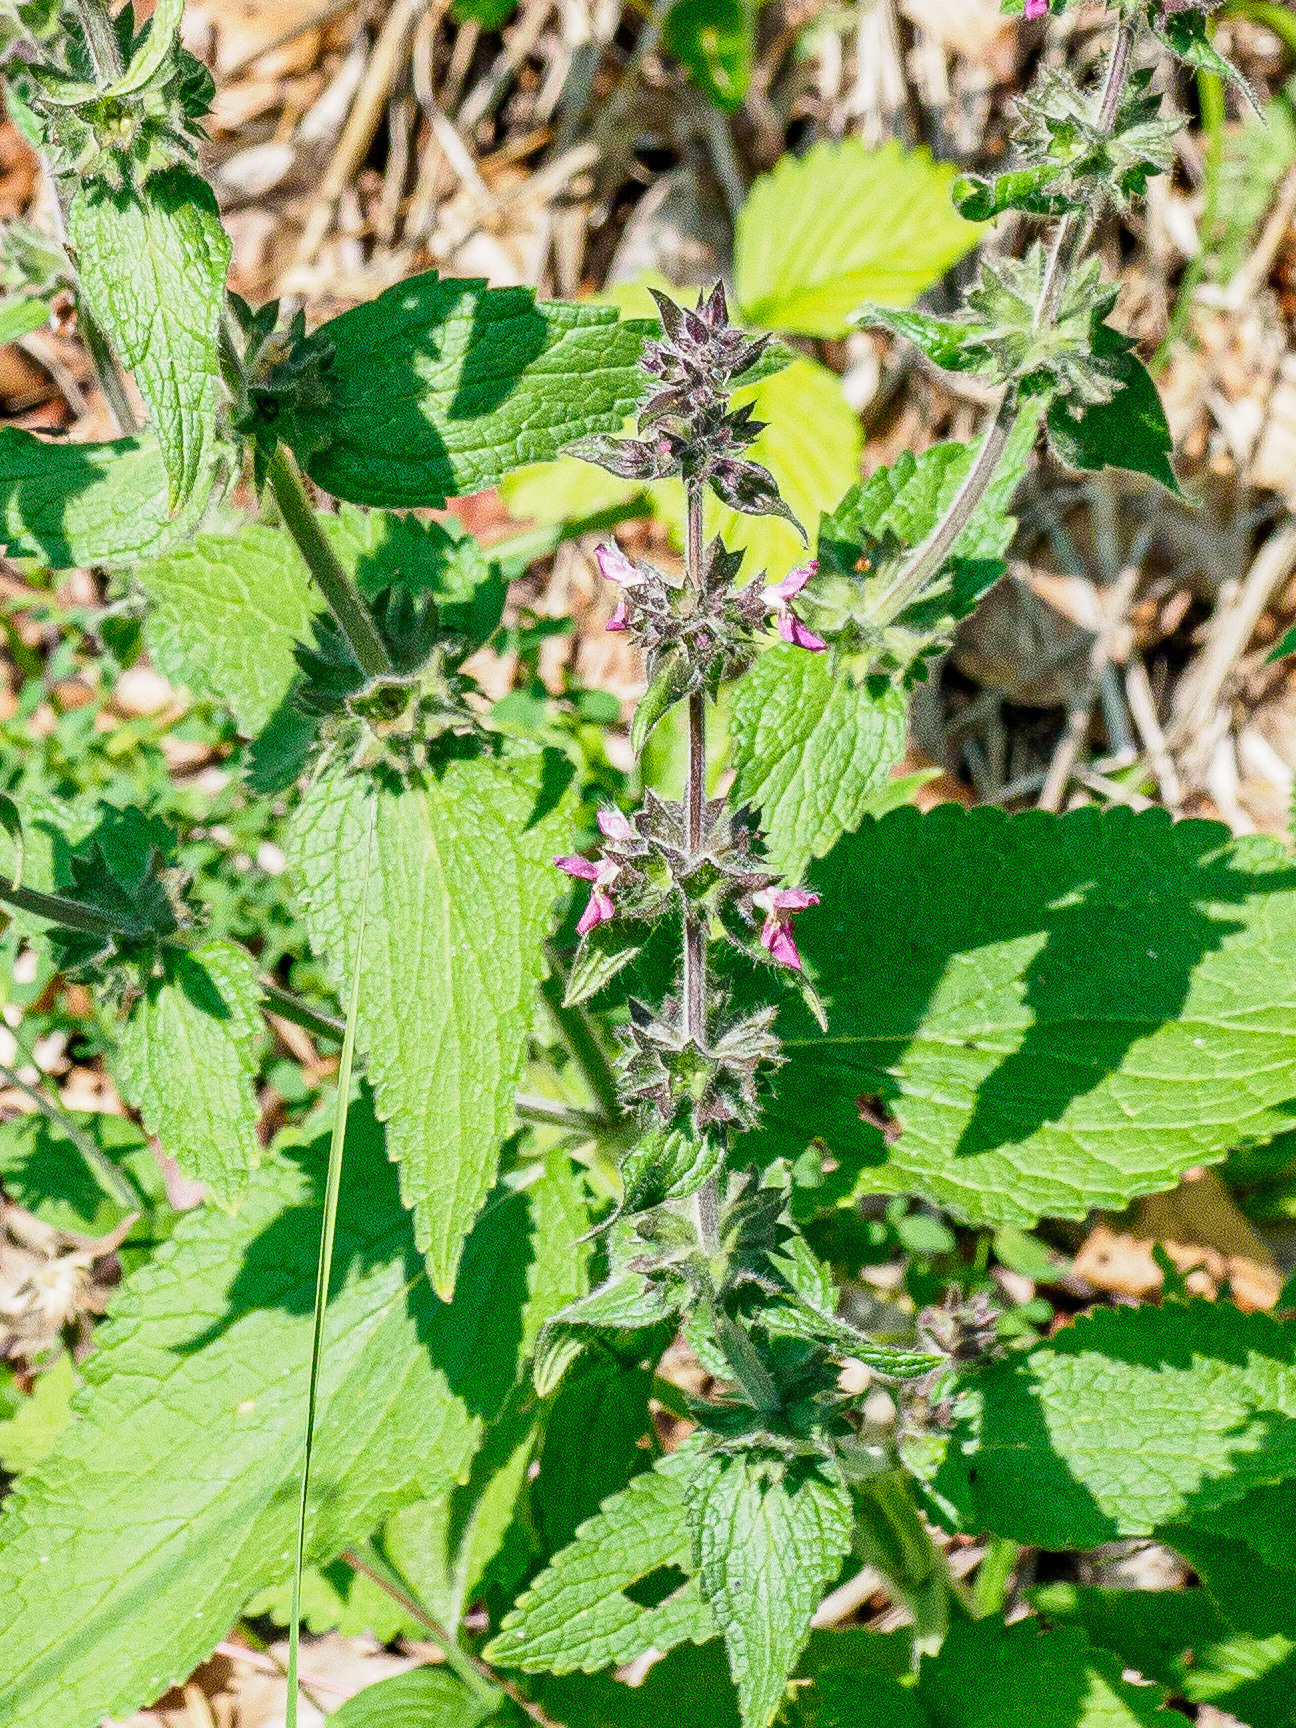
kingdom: Plantae
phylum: Tracheophyta
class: Magnoliopsida
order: Lamiales
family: Lamiaceae
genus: Stachys
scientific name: Stachys sylvatica
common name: Hedge woundwort
